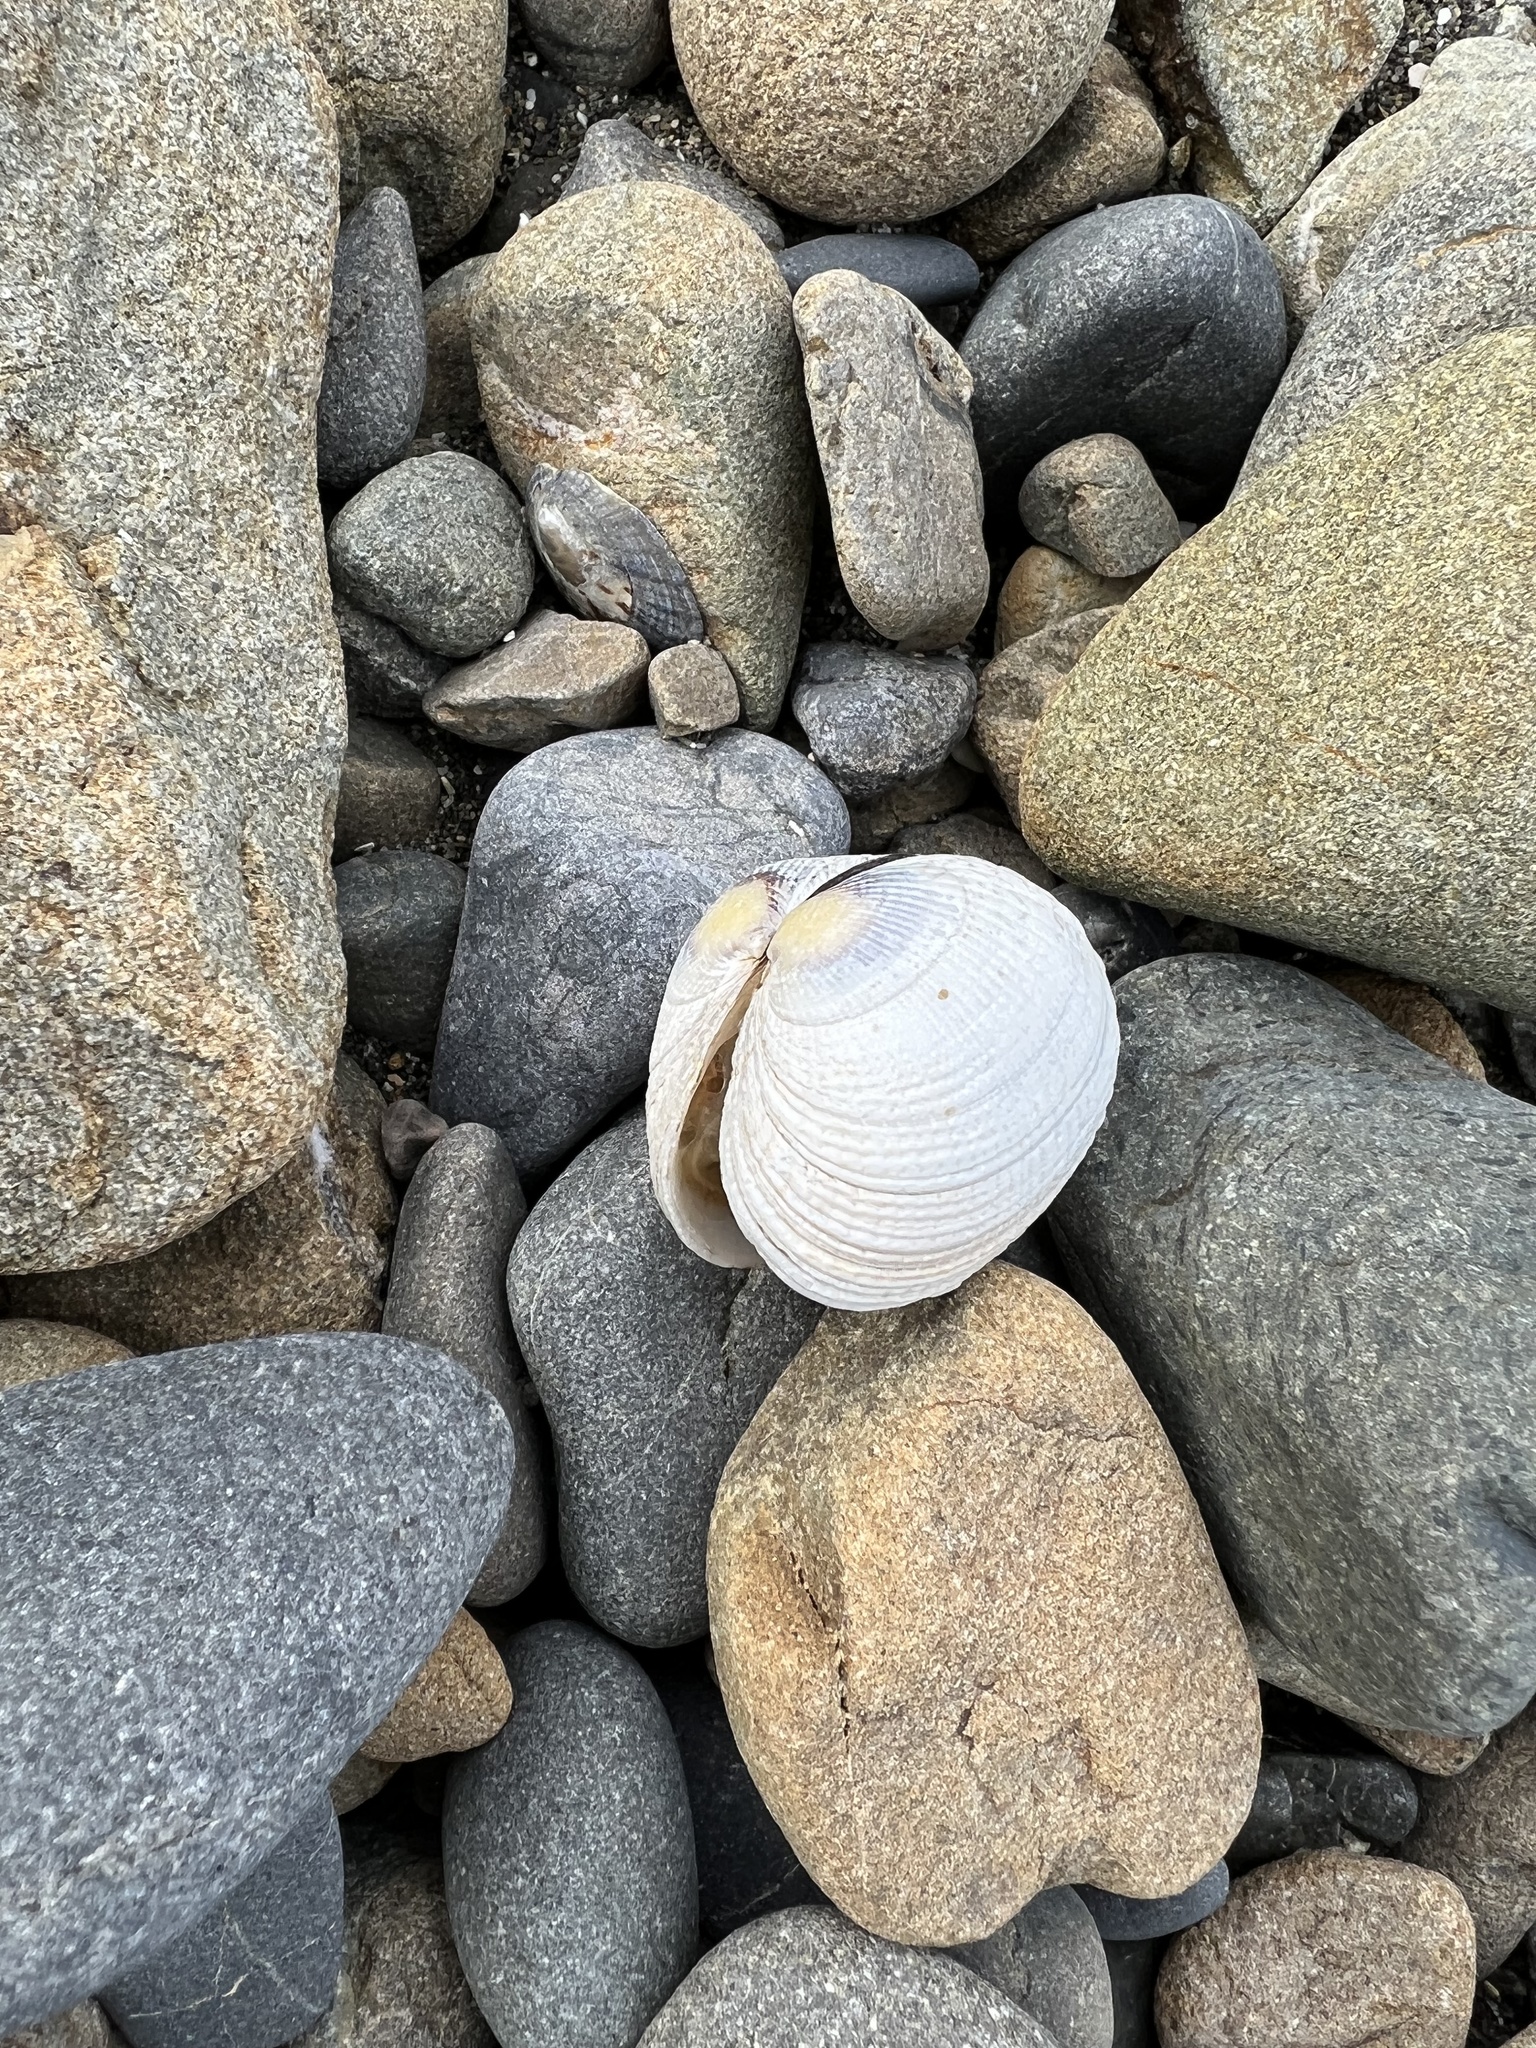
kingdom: Animalia
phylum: Mollusca
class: Bivalvia
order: Venerida
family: Veneridae
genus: Leukoma
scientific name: Leukoma crassicosta
